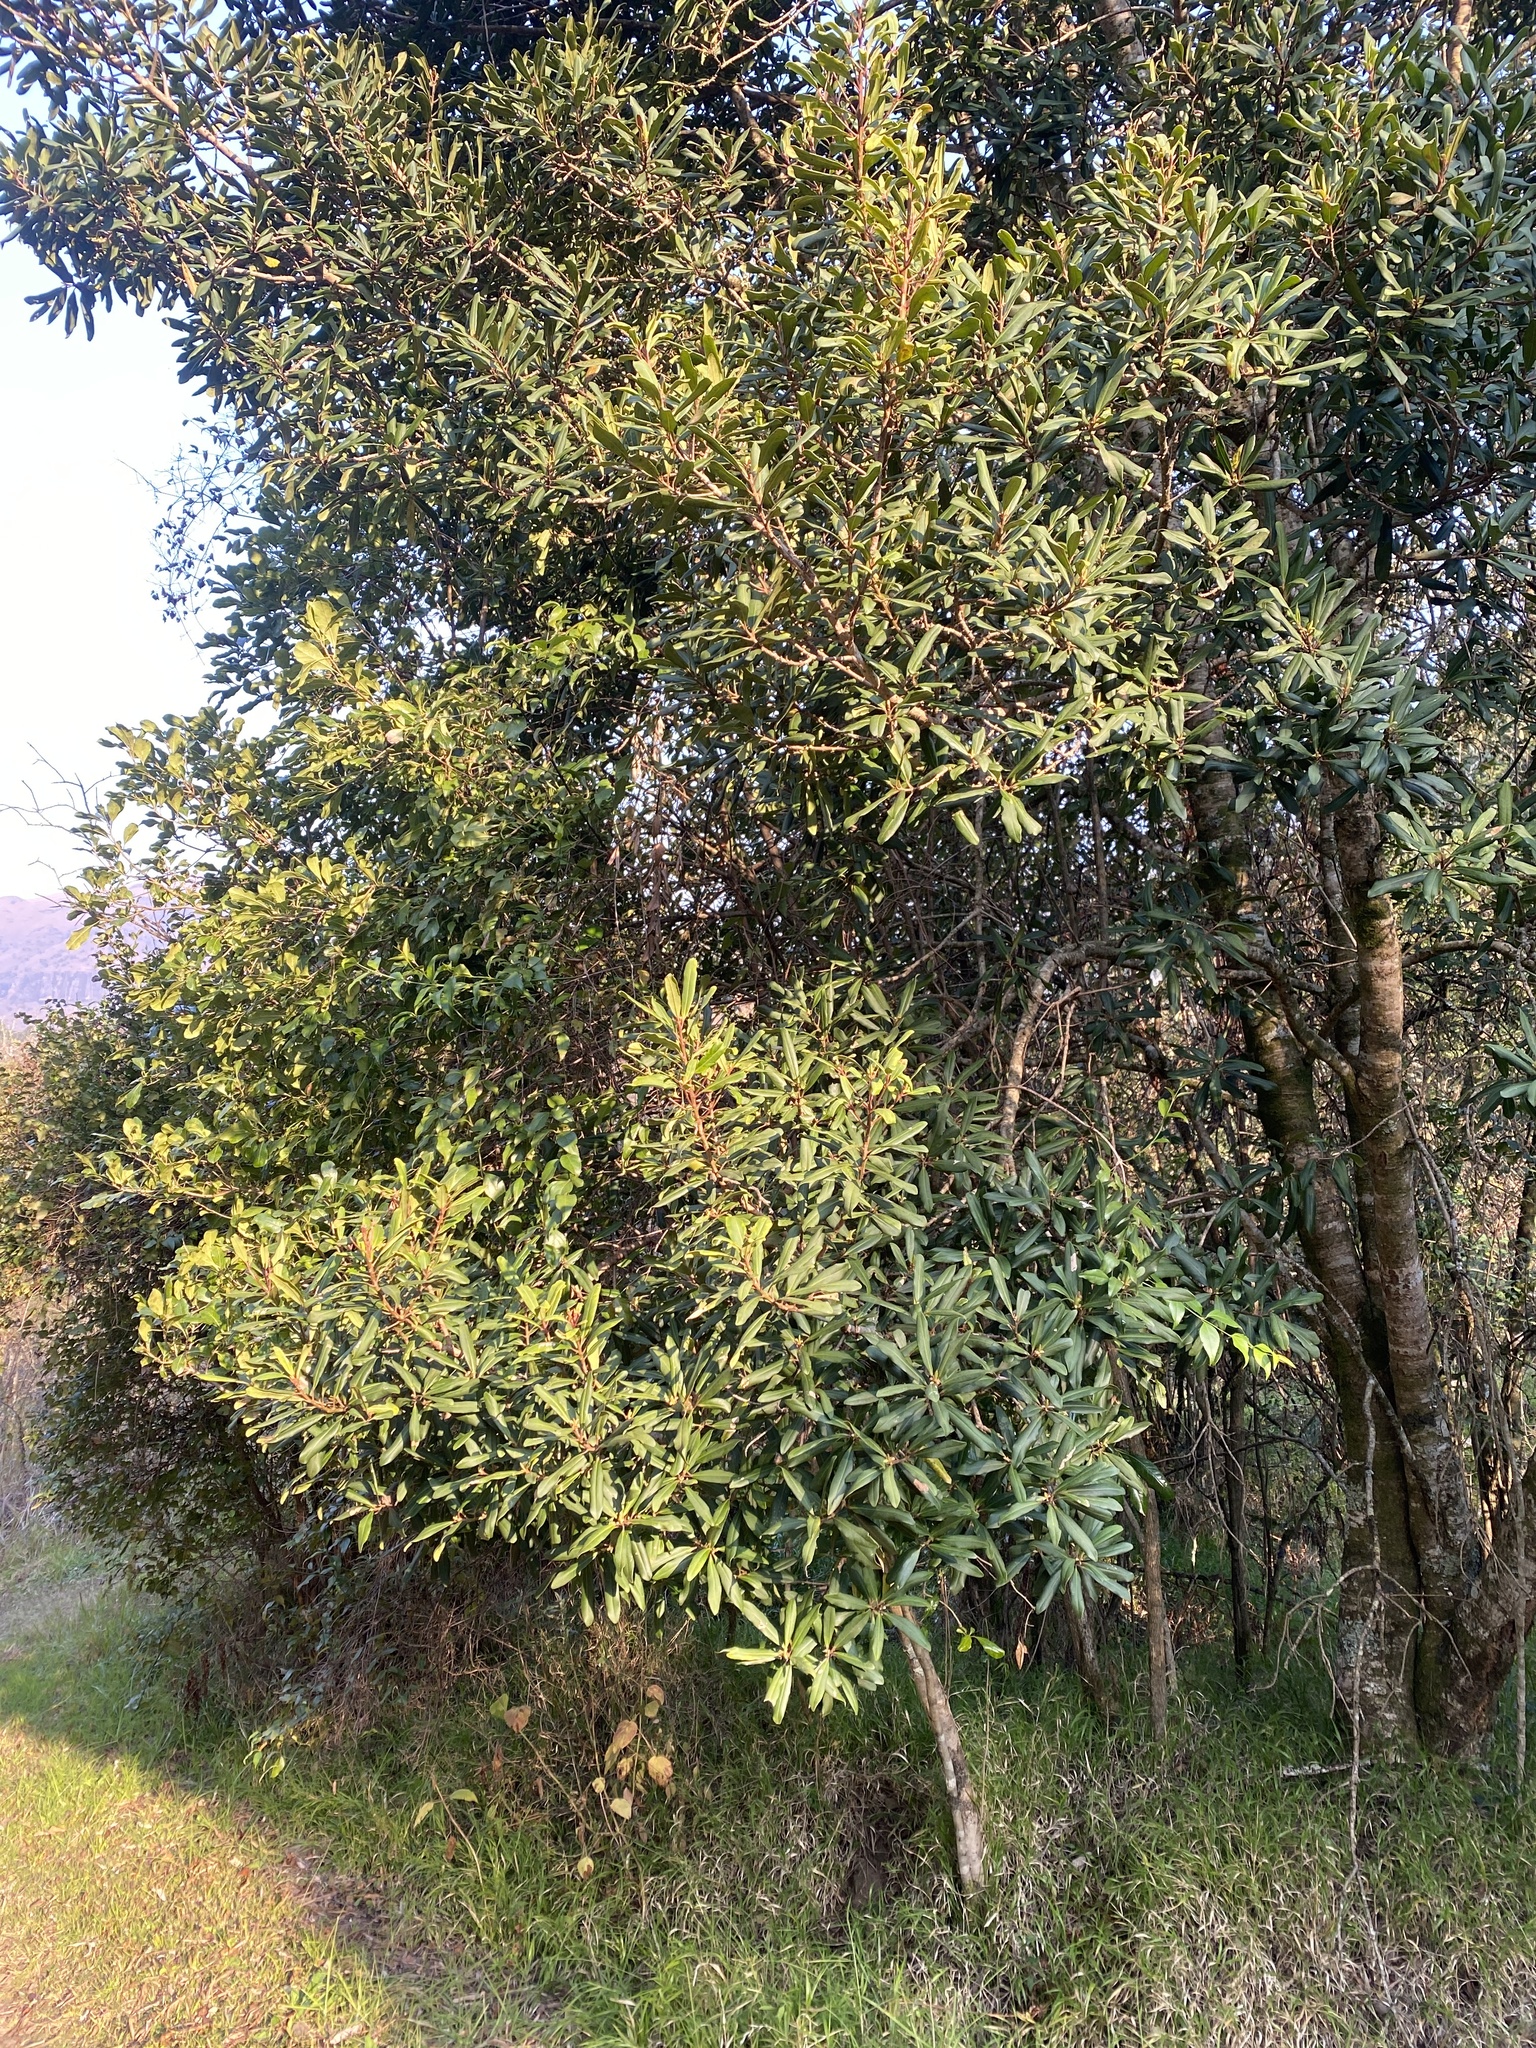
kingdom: Plantae
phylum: Tracheophyta
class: Magnoliopsida
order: Ericales
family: Primulaceae
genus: Myrsine
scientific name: Myrsine melanophloeos
